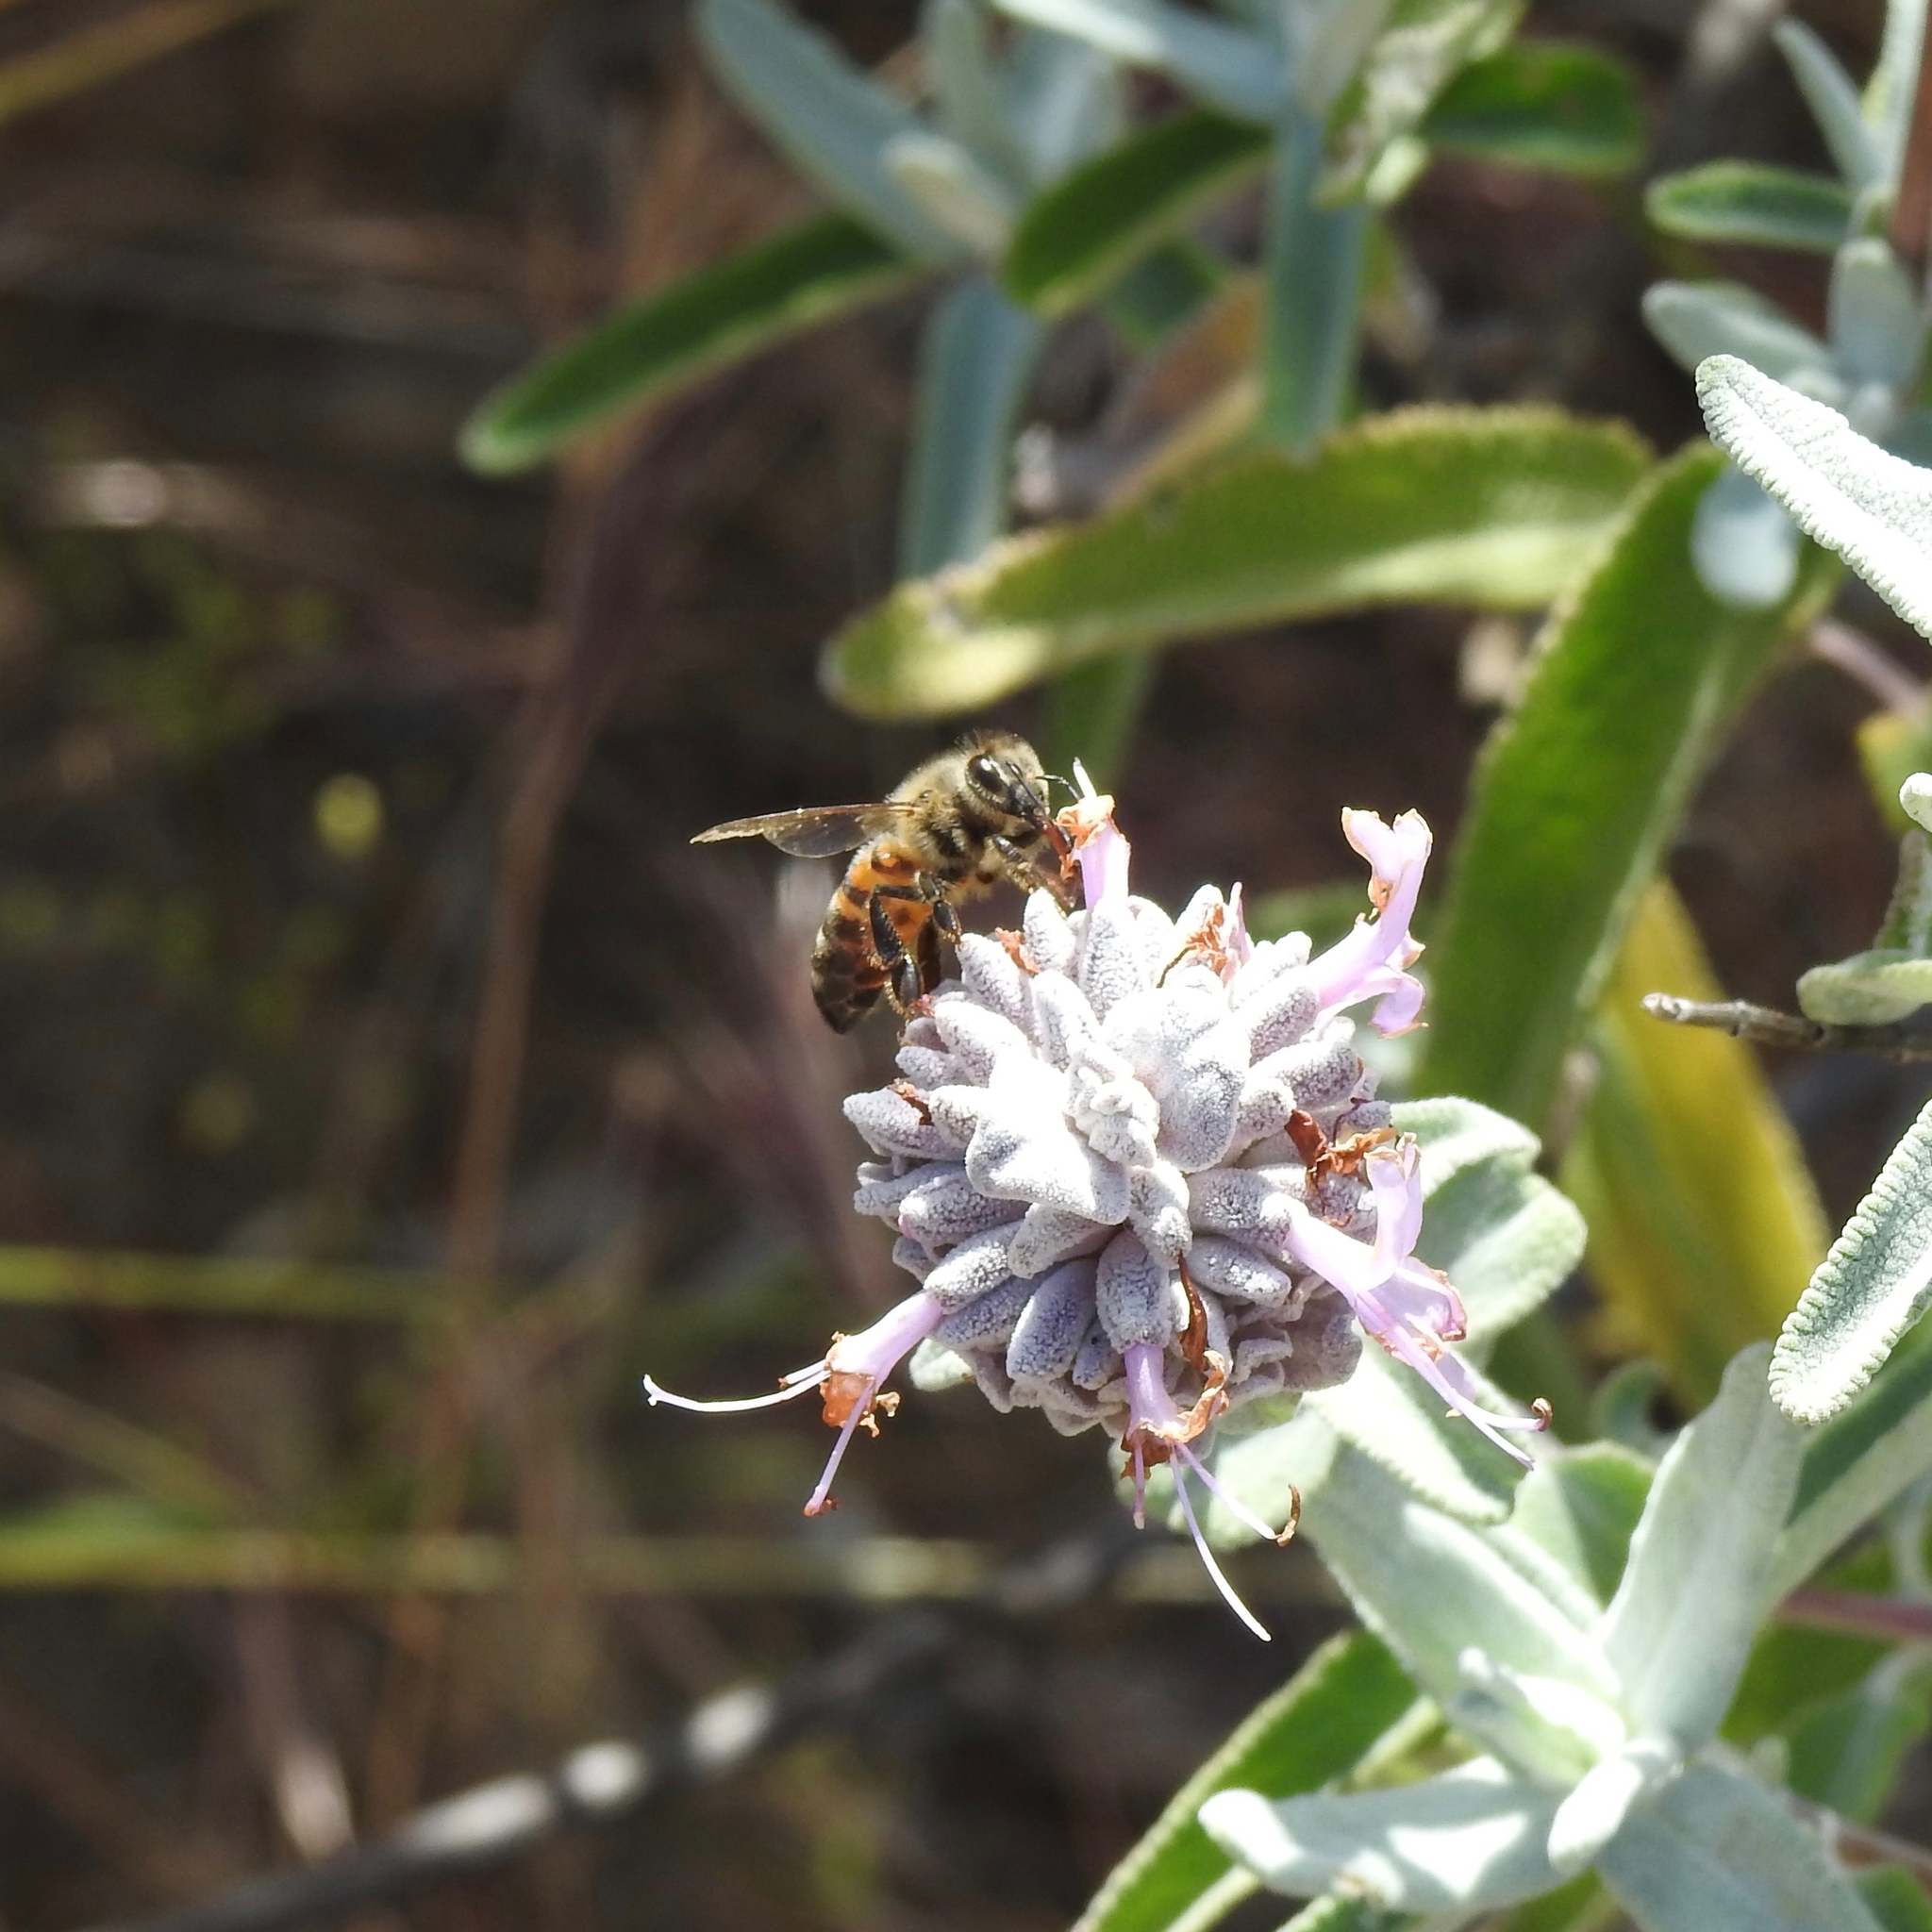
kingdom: Animalia
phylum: Arthropoda
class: Insecta
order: Hymenoptera
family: Apidae
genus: Apis
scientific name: Apis mellifera
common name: Honey bee
